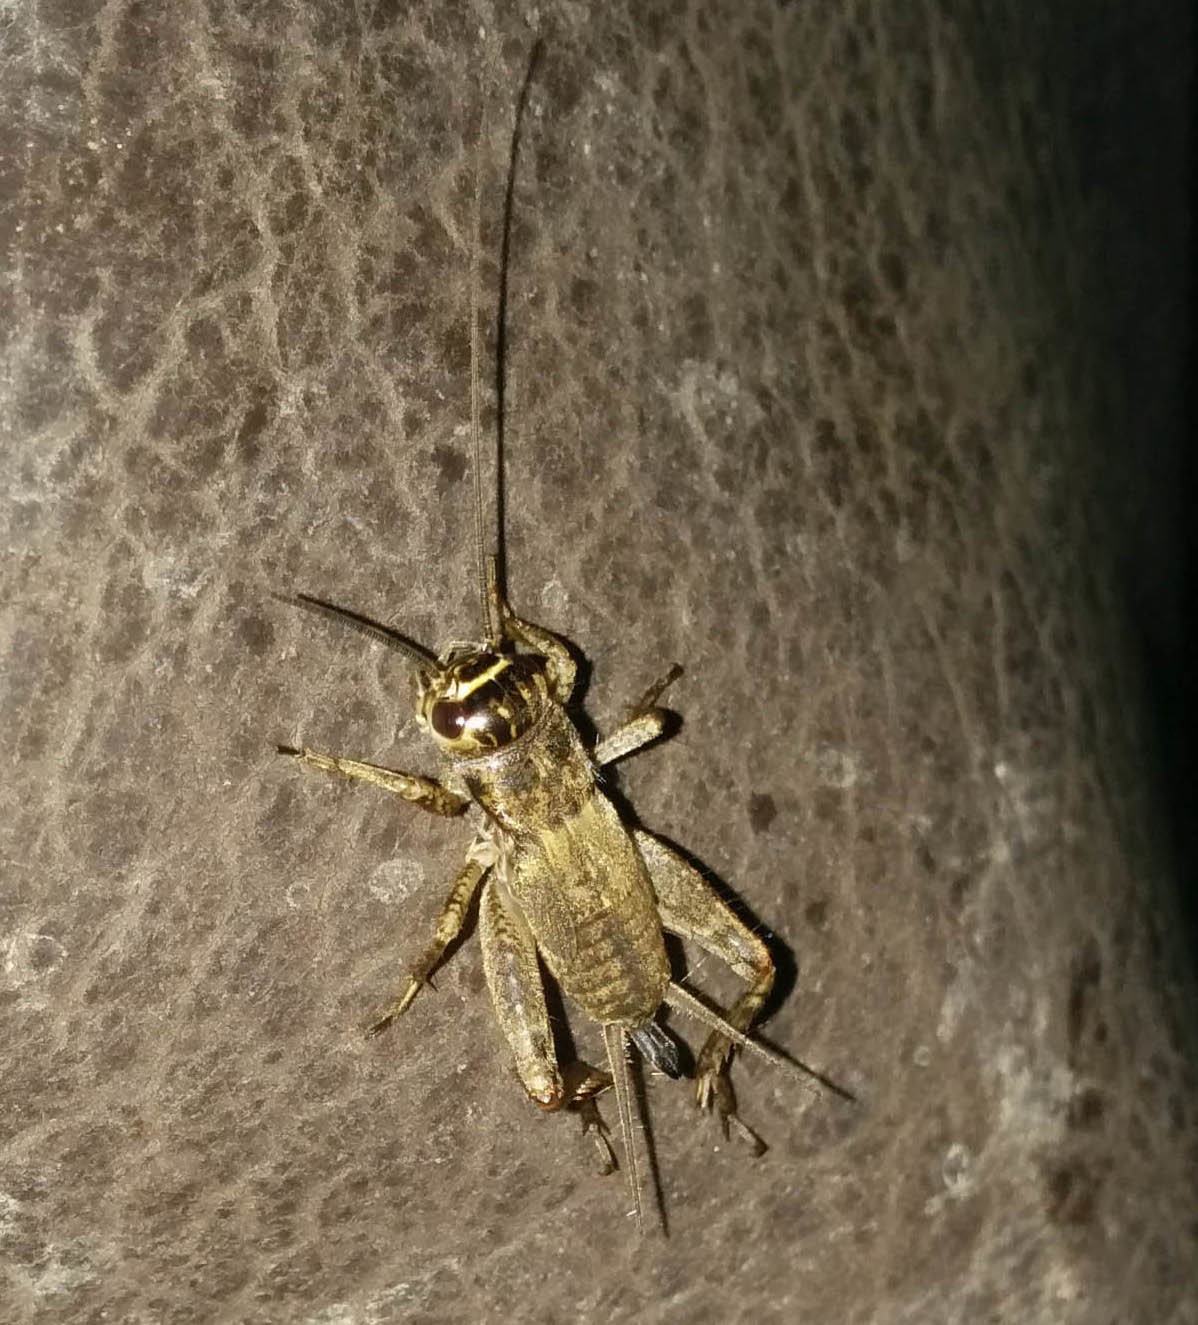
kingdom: Animalia
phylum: Arthropoda
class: Insecta
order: Orthoptera
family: Gryllidae
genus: Eumodicogryllus
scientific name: Eumodicogryllus bordigalensis
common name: Bordeaux cricket
